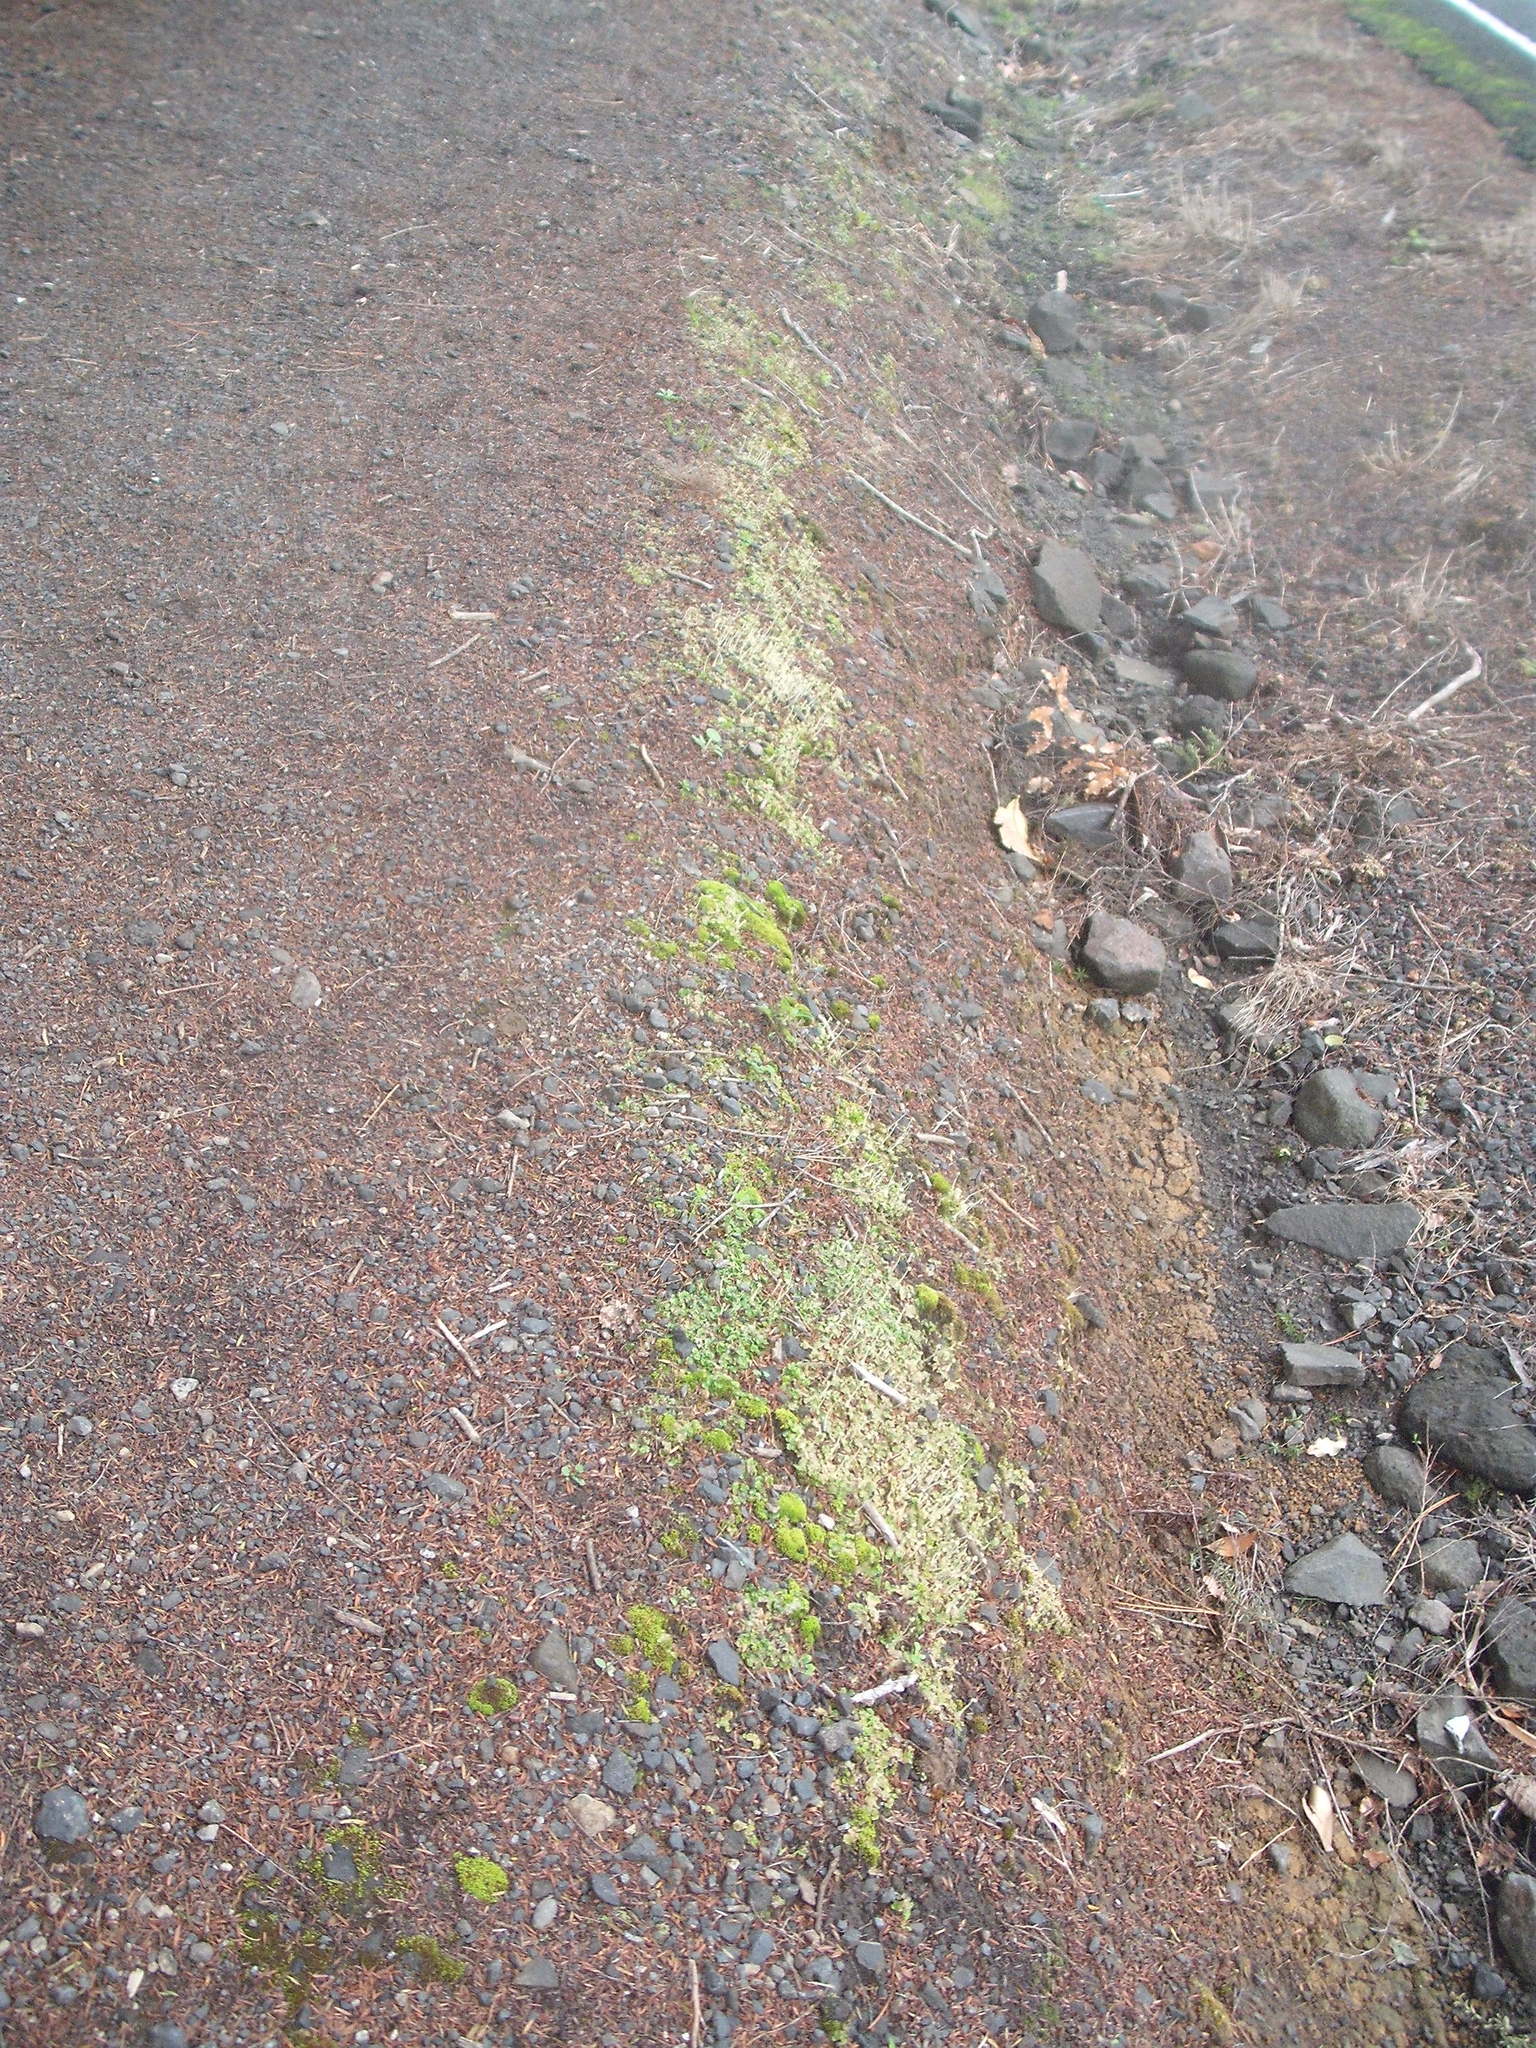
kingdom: Plantae
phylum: Marchantiophyta
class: Marchantiopsida
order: Lunulariales
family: Lunulariaceae
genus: Lunularia
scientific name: Lunularia cruciata
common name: Crescent-cup liverwort
